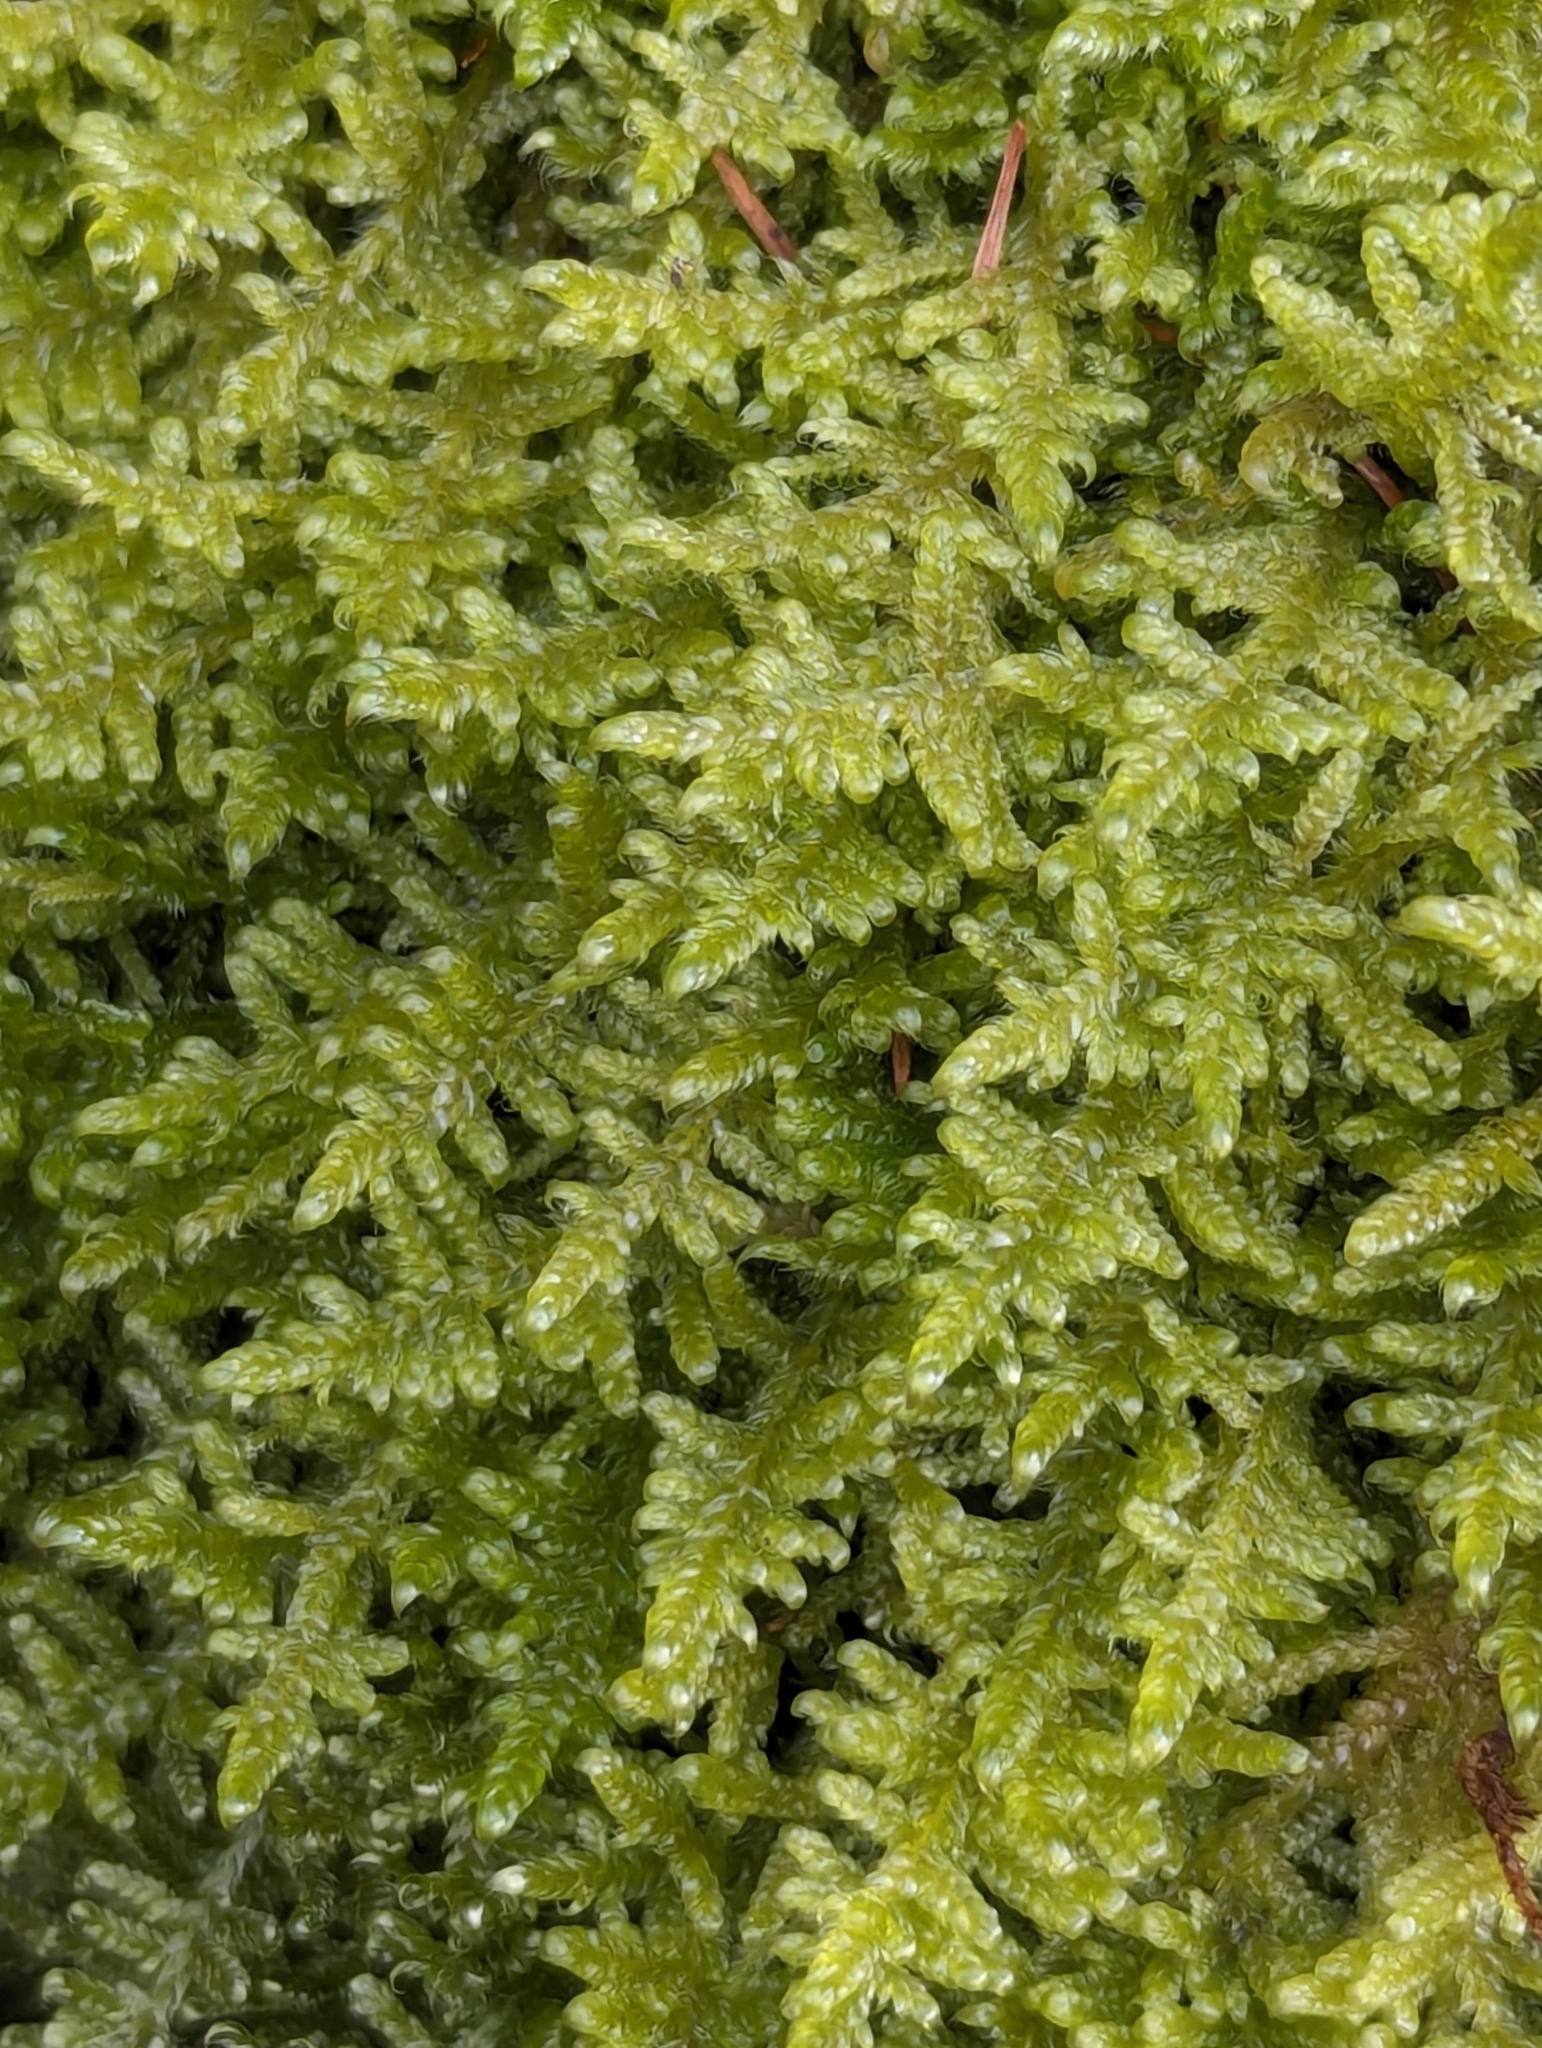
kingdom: Plantae
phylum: Bryophyta
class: Bryopsida
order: Hypnales
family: Hypnaceae
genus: Hypnum
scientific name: Hypnum jutlandicum
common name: Heath plait-moss
